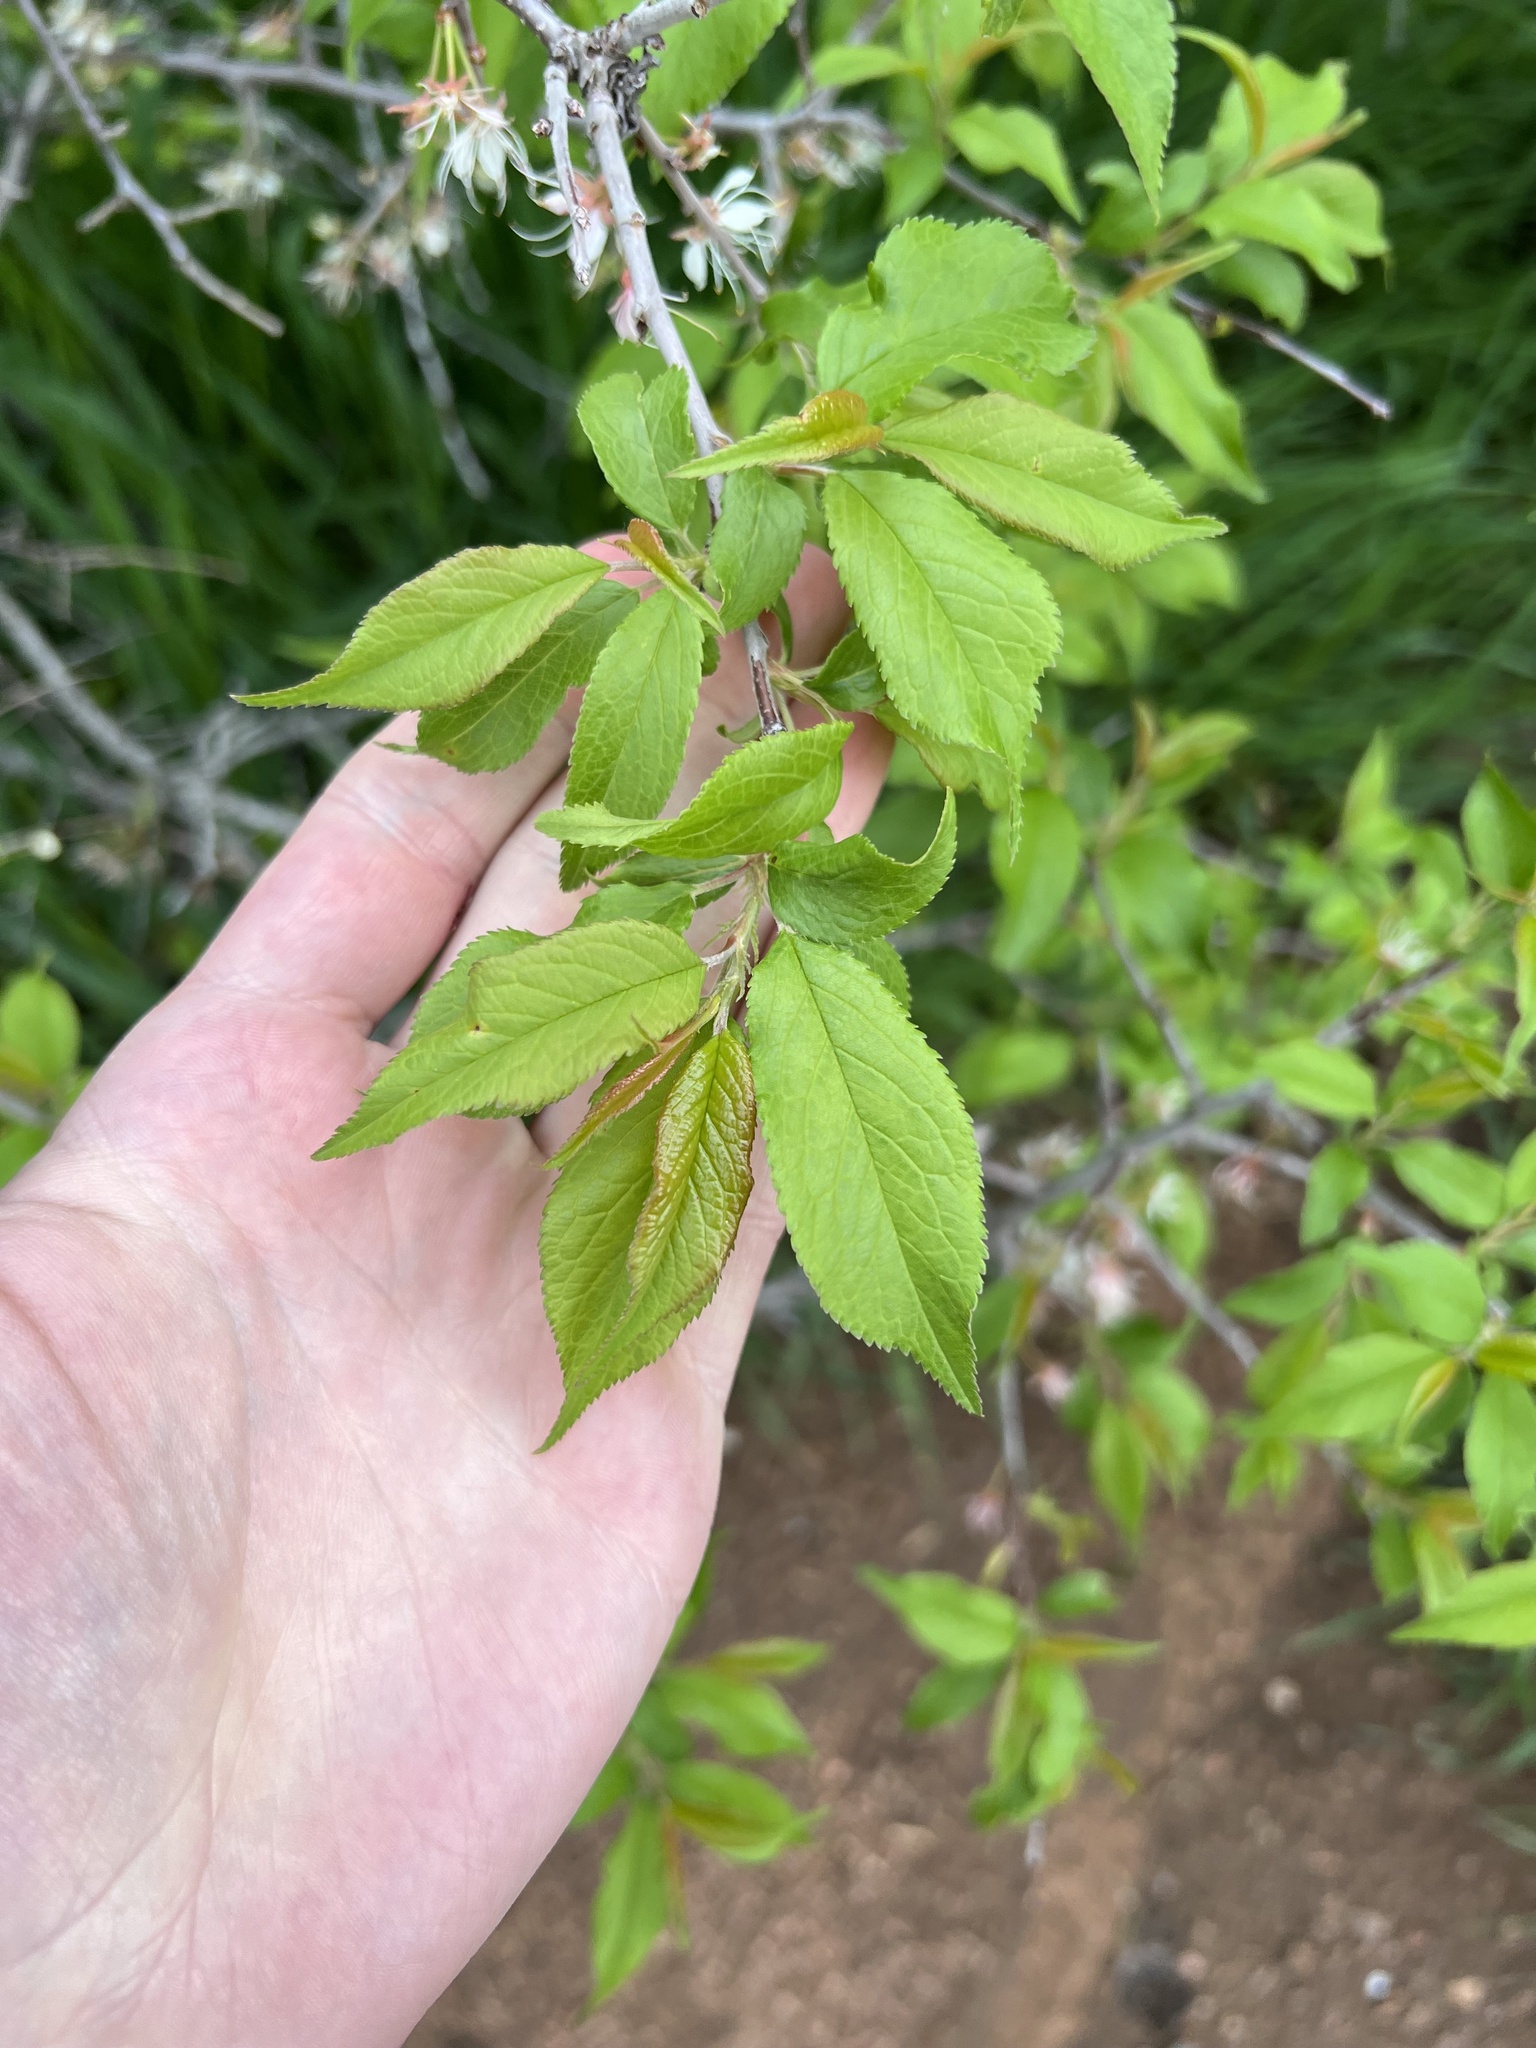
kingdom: Plantae
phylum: Tracheophyta
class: Magnoliopsida
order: Rosales
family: Rosaceae
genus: Prunus
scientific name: Prunus americana
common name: American plum
